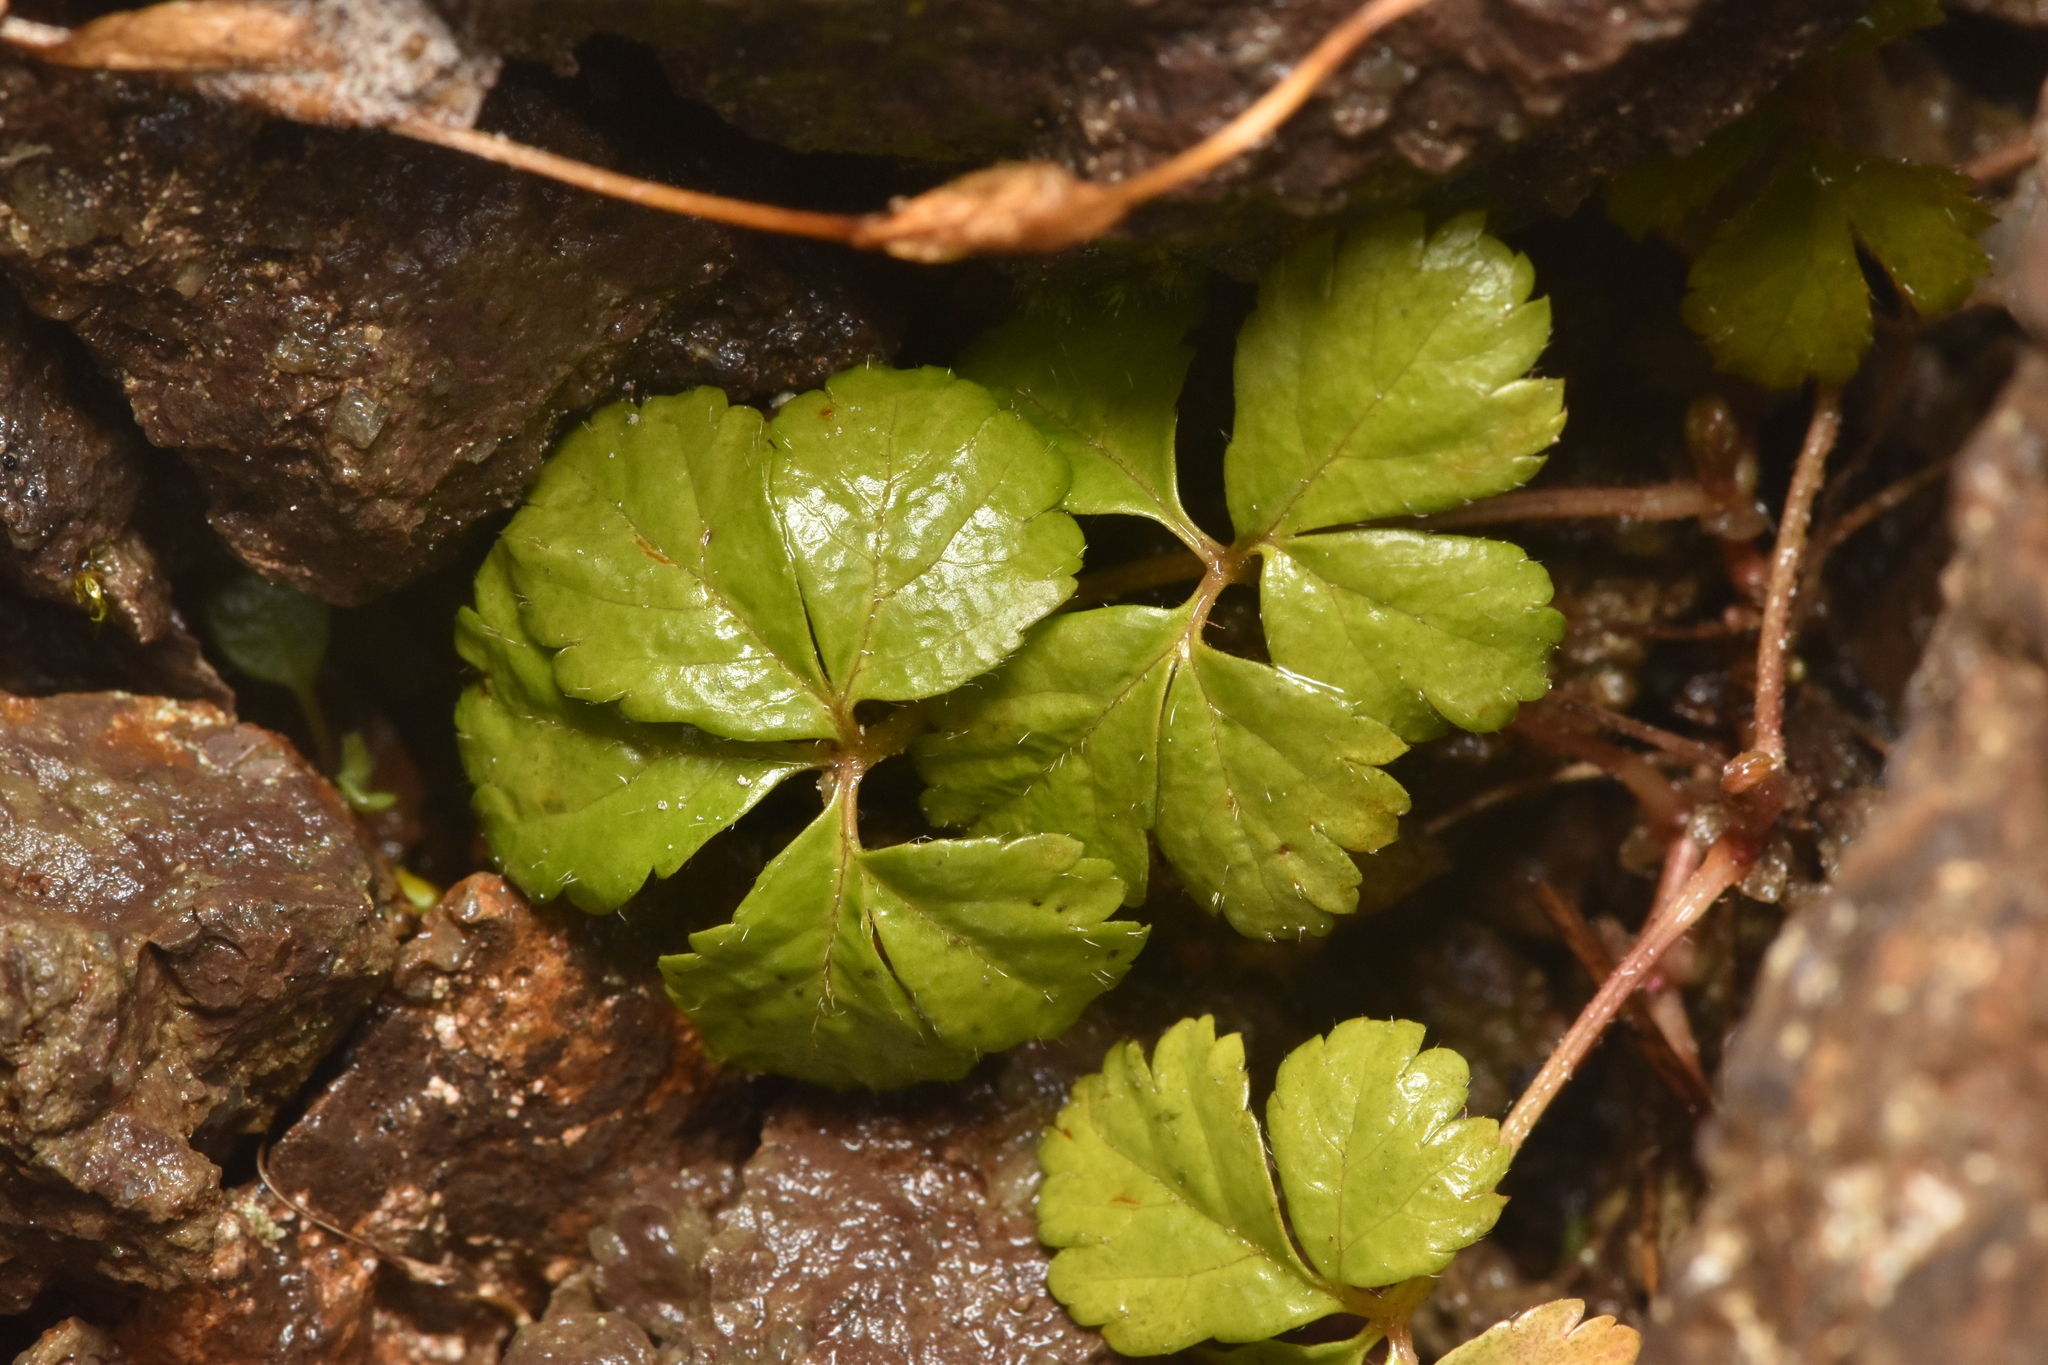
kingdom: Plantae
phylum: Tracheophyta
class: Magnoliopsida
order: Rosales
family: Rosaceae
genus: Rubus
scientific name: Rubus pedatus
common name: Creeping raspberry
